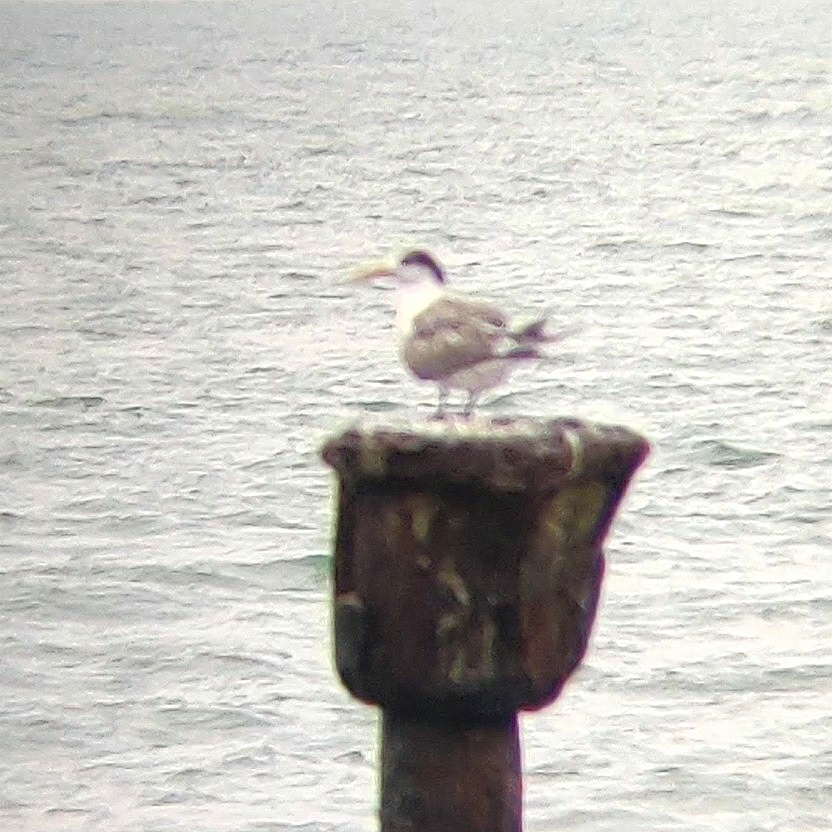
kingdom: Animalia
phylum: Chordata
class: Aves
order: Charadriiformes
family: Laridae
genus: Thalasseus
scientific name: Thalasseus bergii
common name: Greater crested tern
